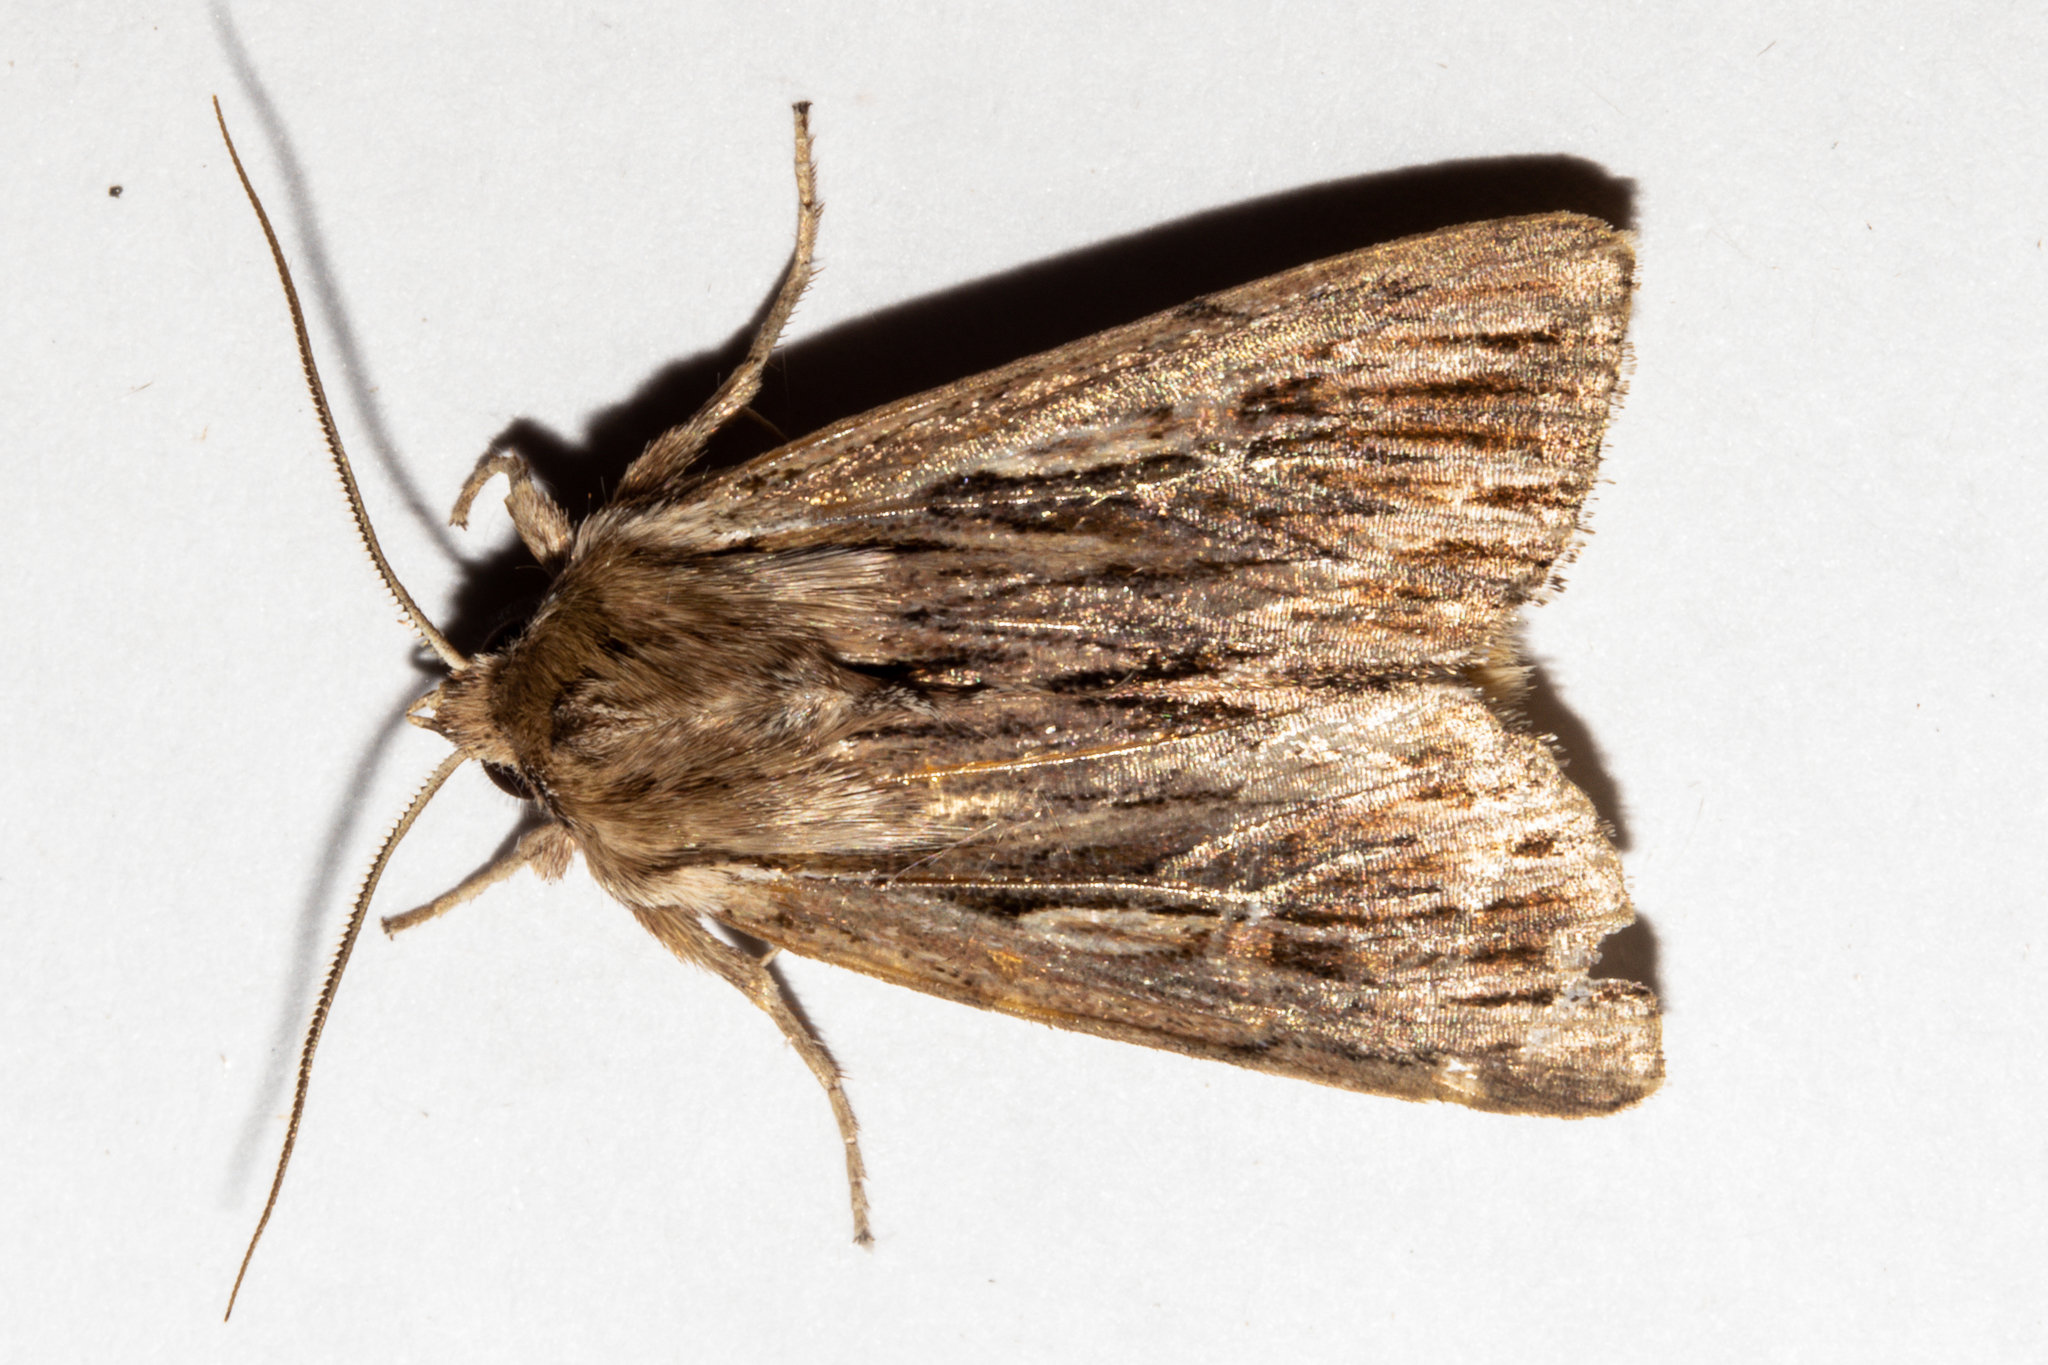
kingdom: Animalia
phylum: Arthropoda
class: Insecta
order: Lepidoptera
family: Noctuidae
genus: Persectania
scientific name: Persectania aversa
